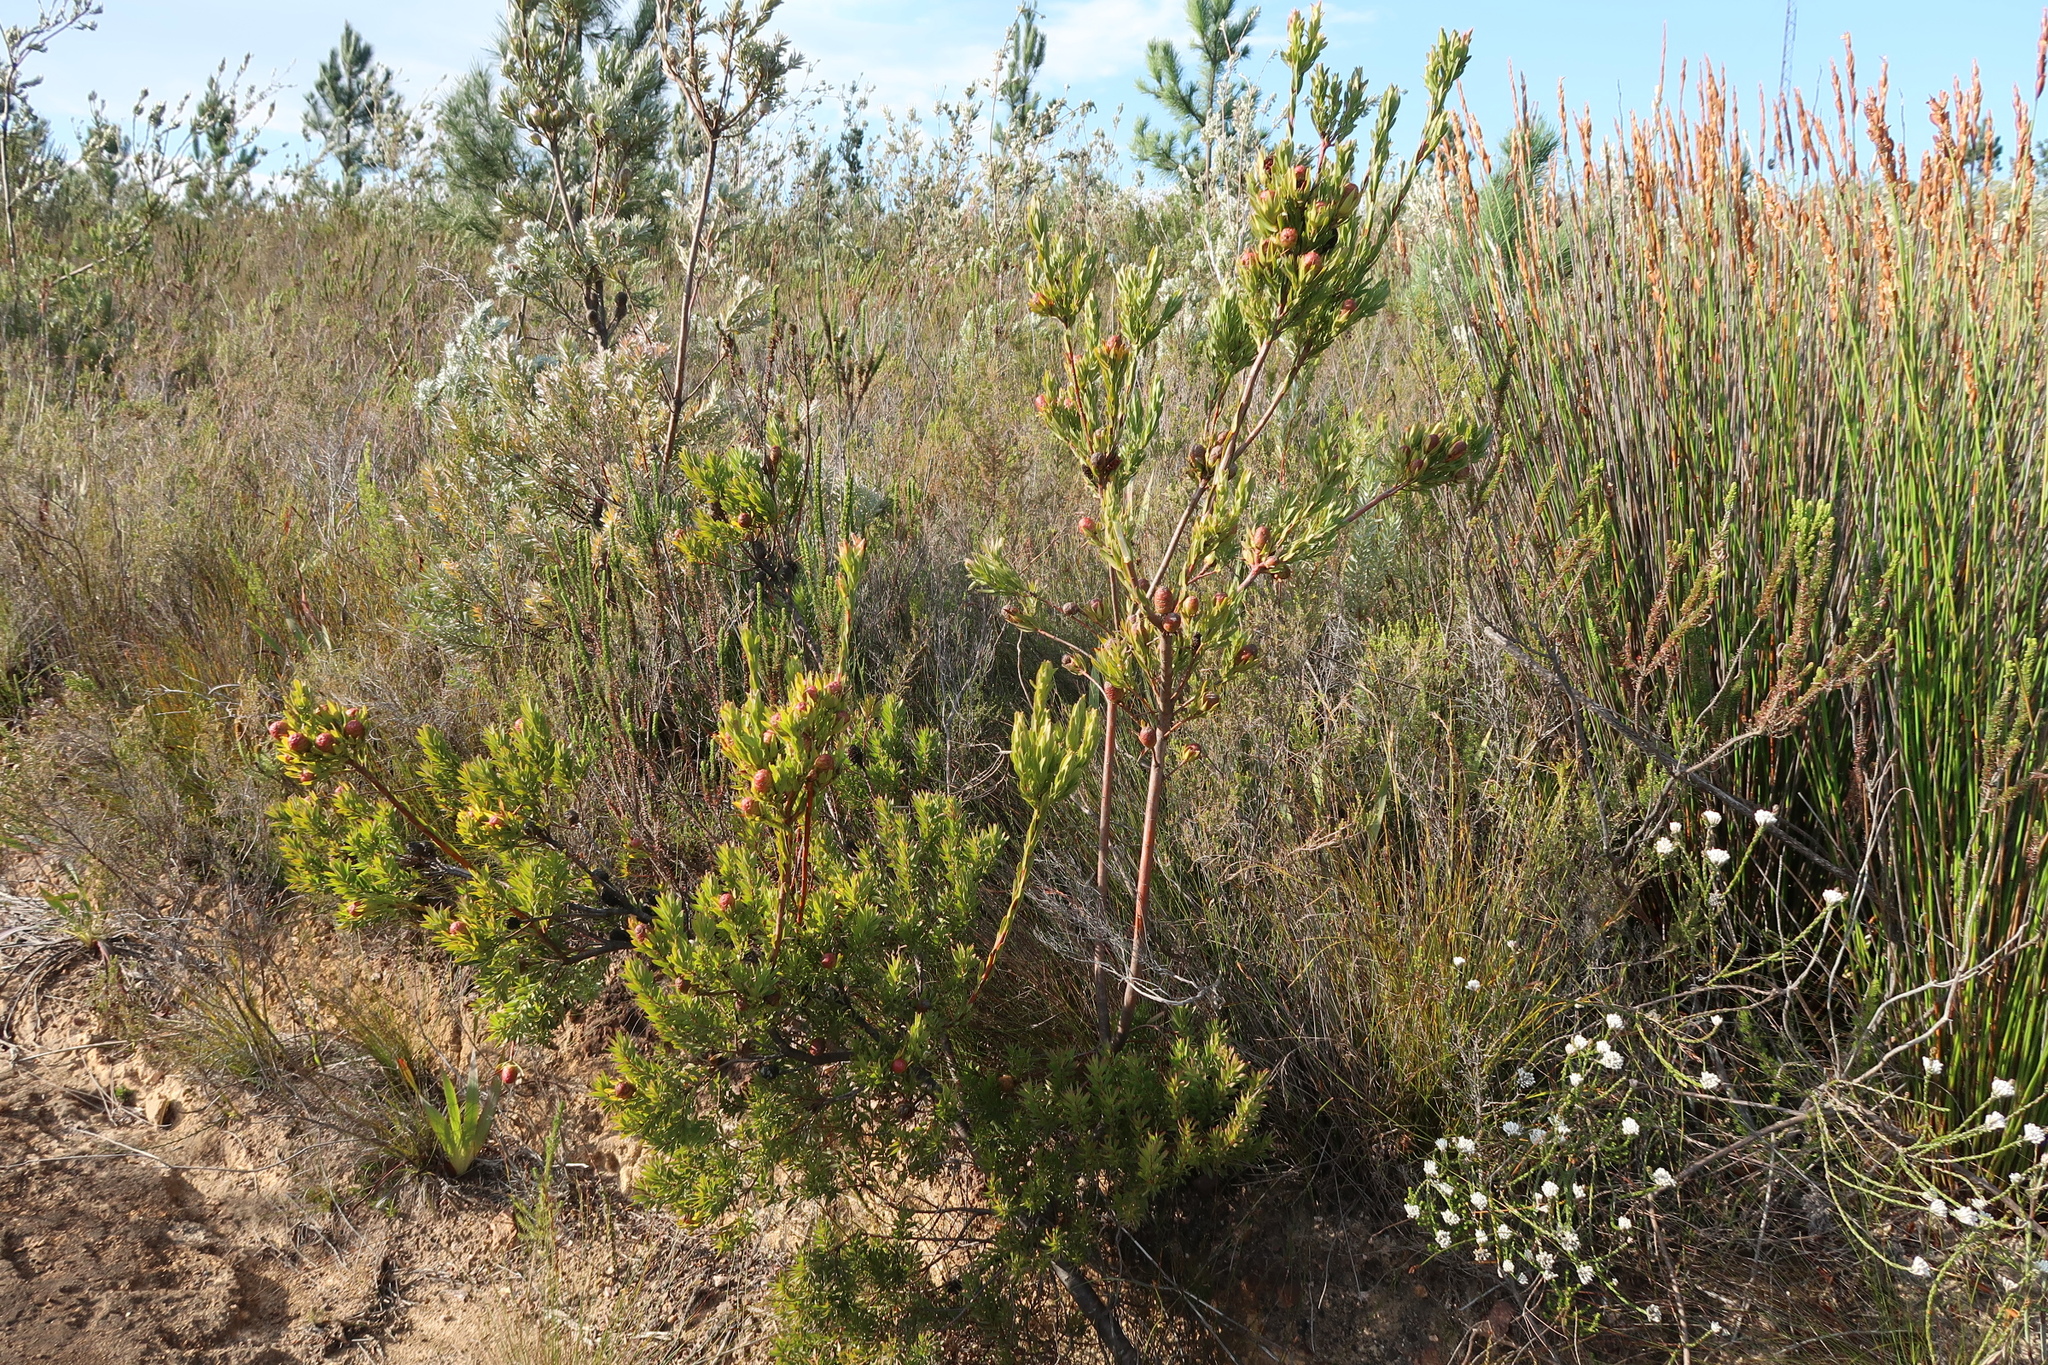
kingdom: Plantae
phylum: Tracheophyta
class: Magnoliopsida
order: Proteales
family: Proteaceae
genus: Leucadendron
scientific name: Leucadendron uliginosum
